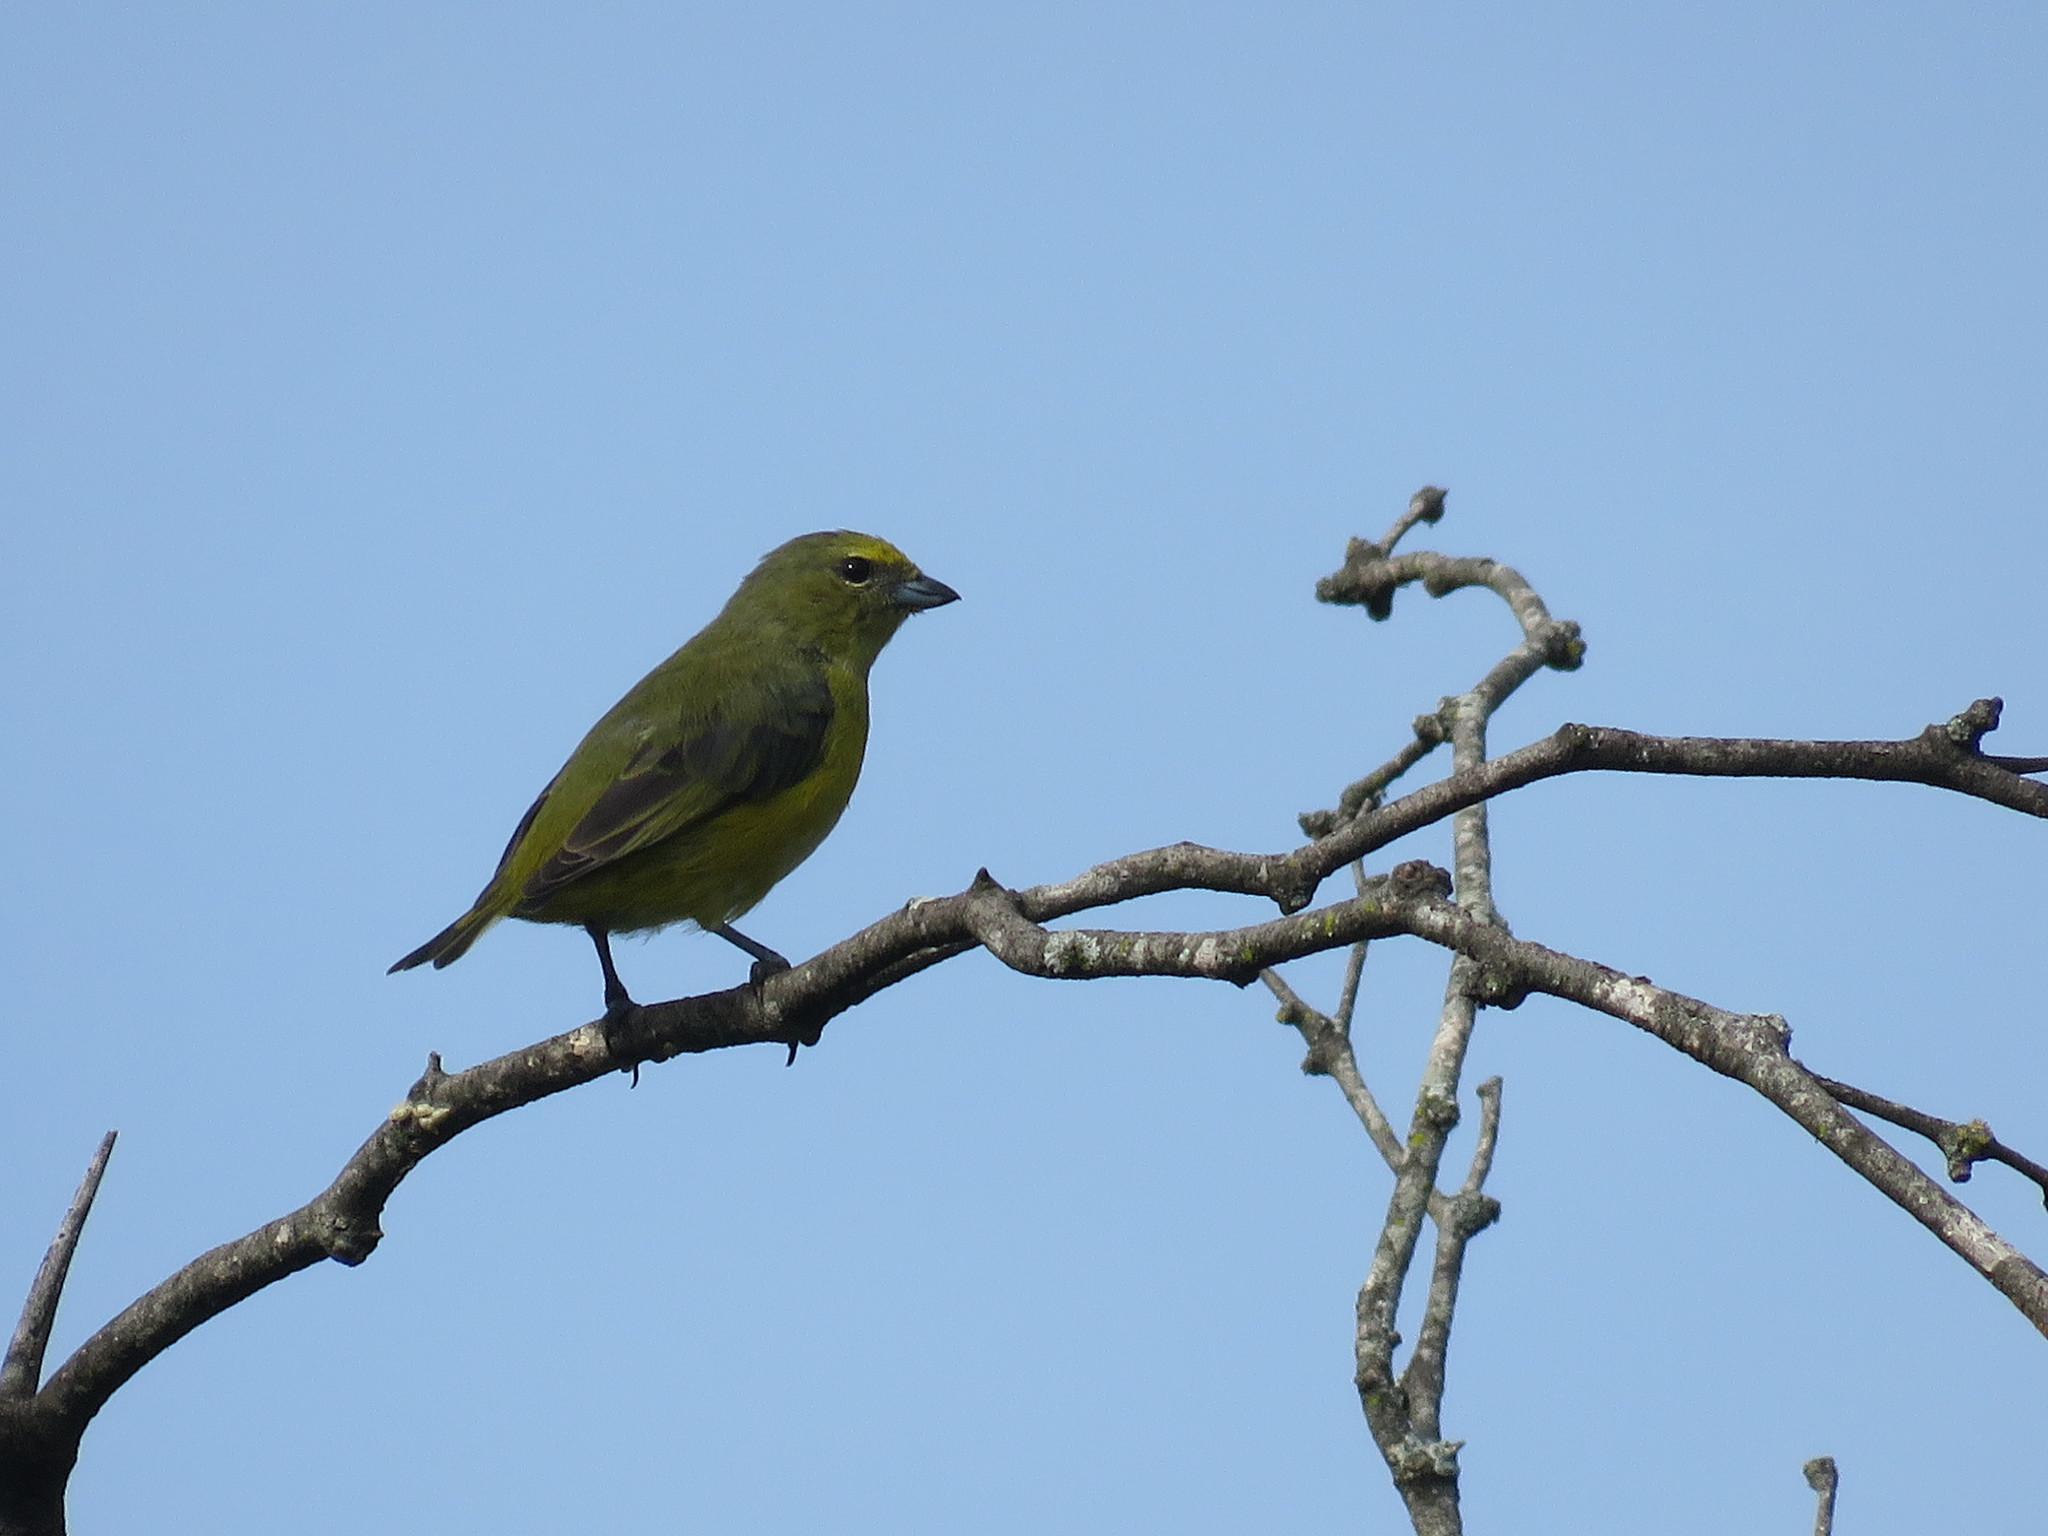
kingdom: Animalia
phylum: Chordata
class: Aves
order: Passeriformes
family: Fringillidae
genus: Euphonia
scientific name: Euphonia chlorotica
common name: Purple-throated euphonia
